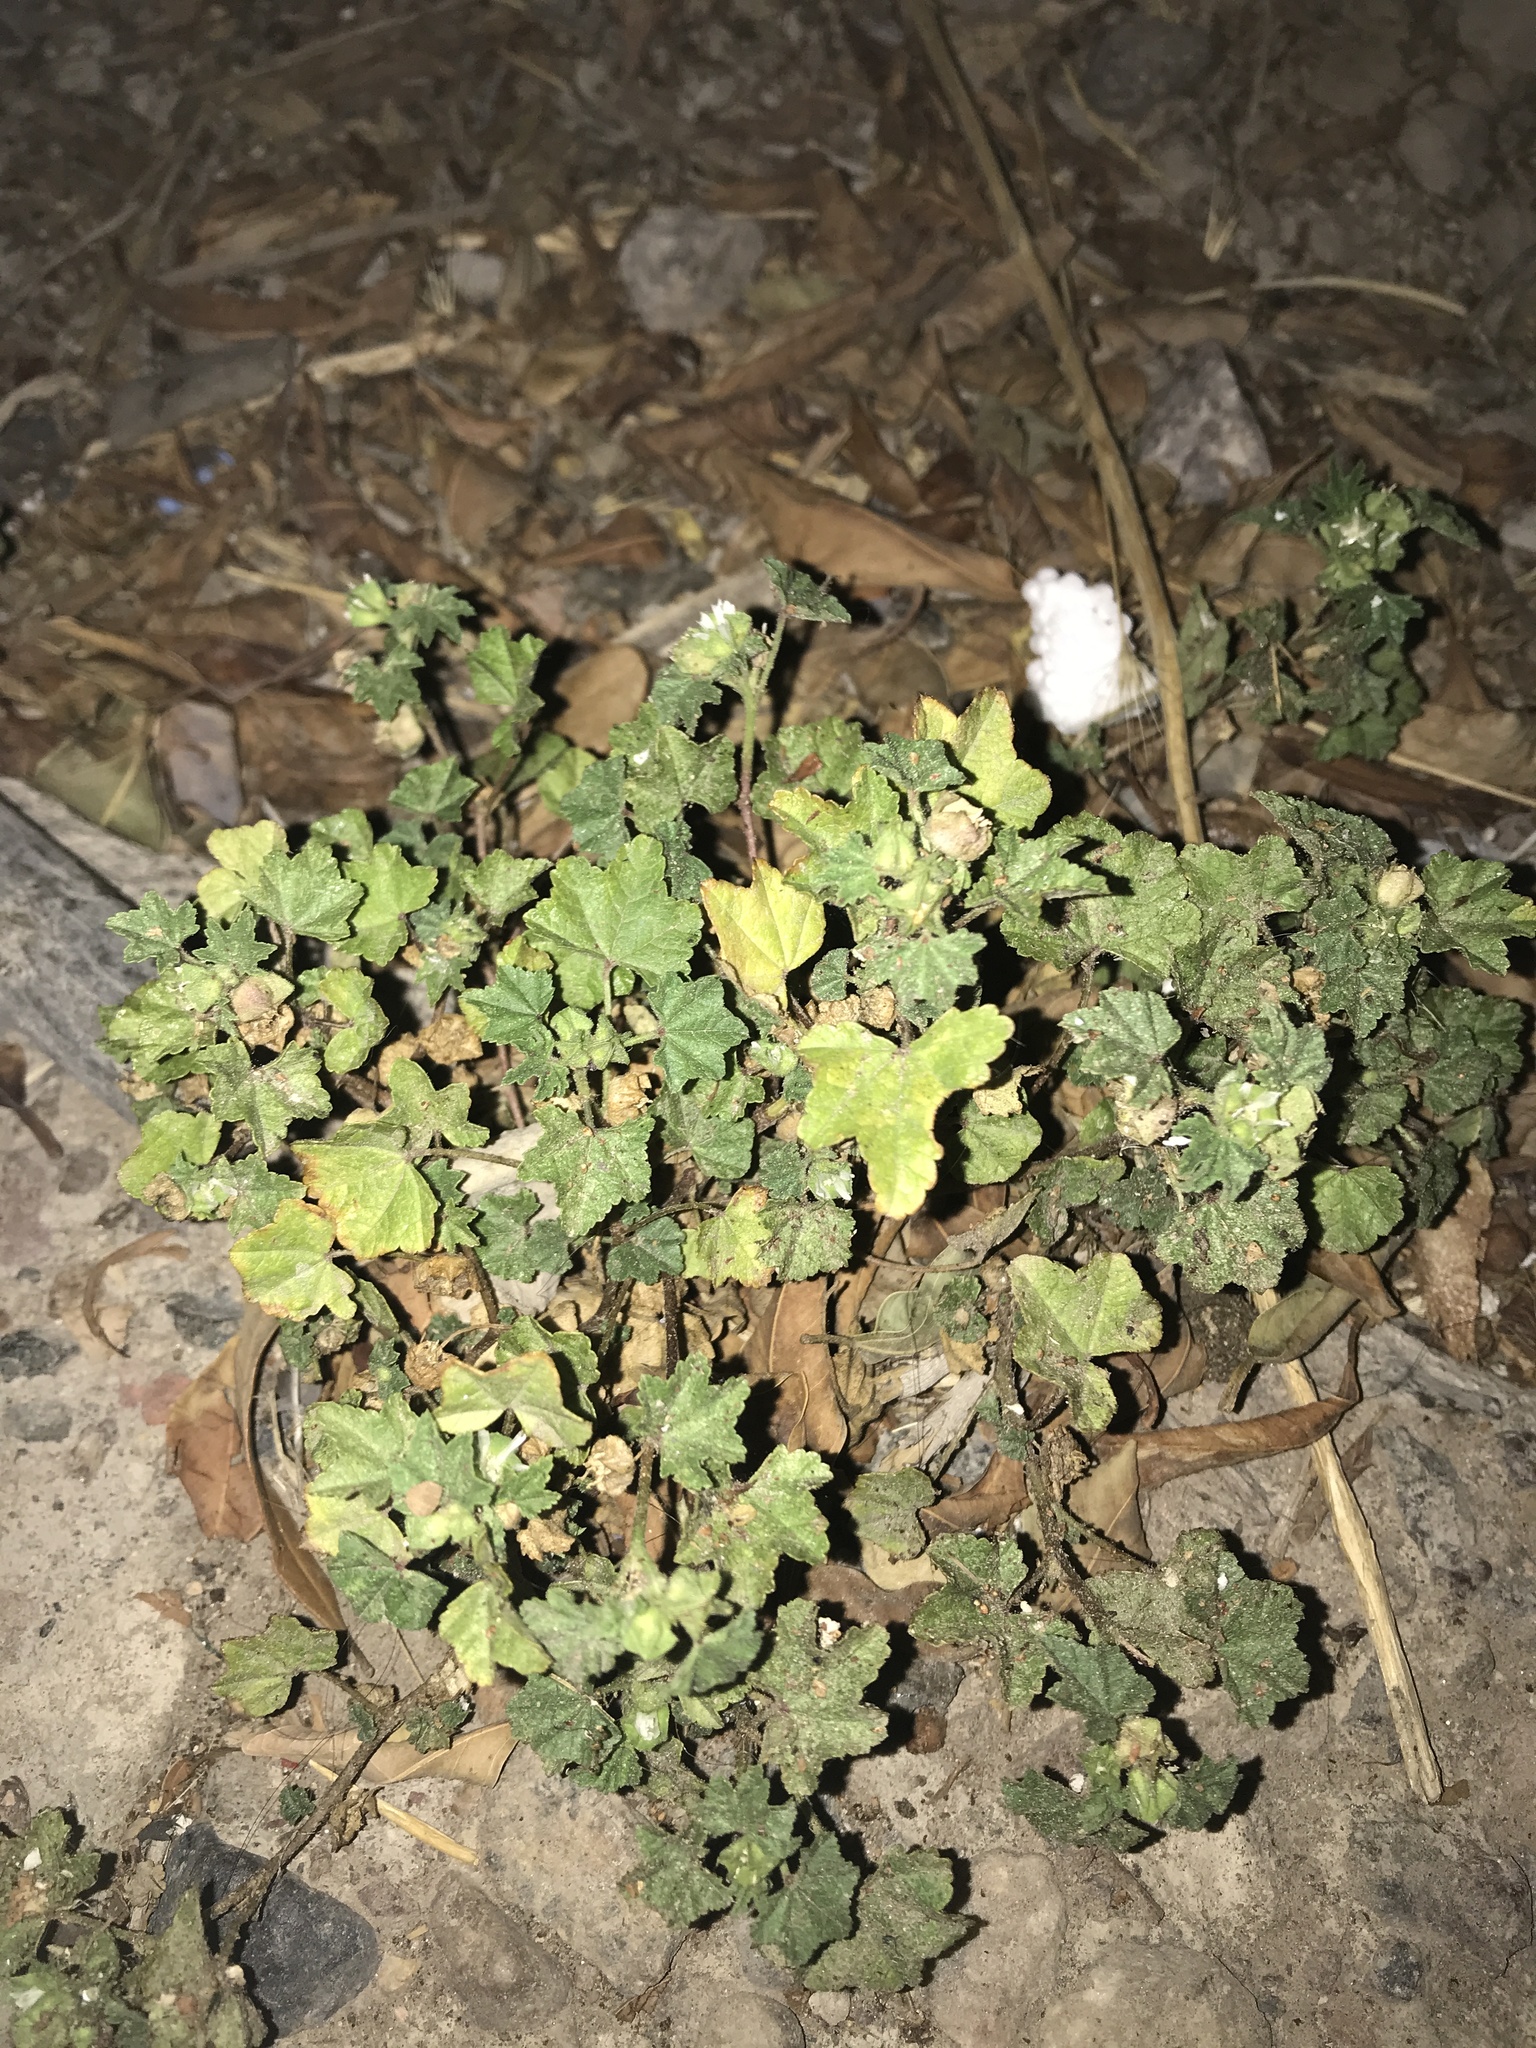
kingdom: Plantae
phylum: Tracheophyta
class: Magnoliopsida
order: Malvales
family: Malvaceae
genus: Malva
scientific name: Malva parviflora
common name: Least mallow
